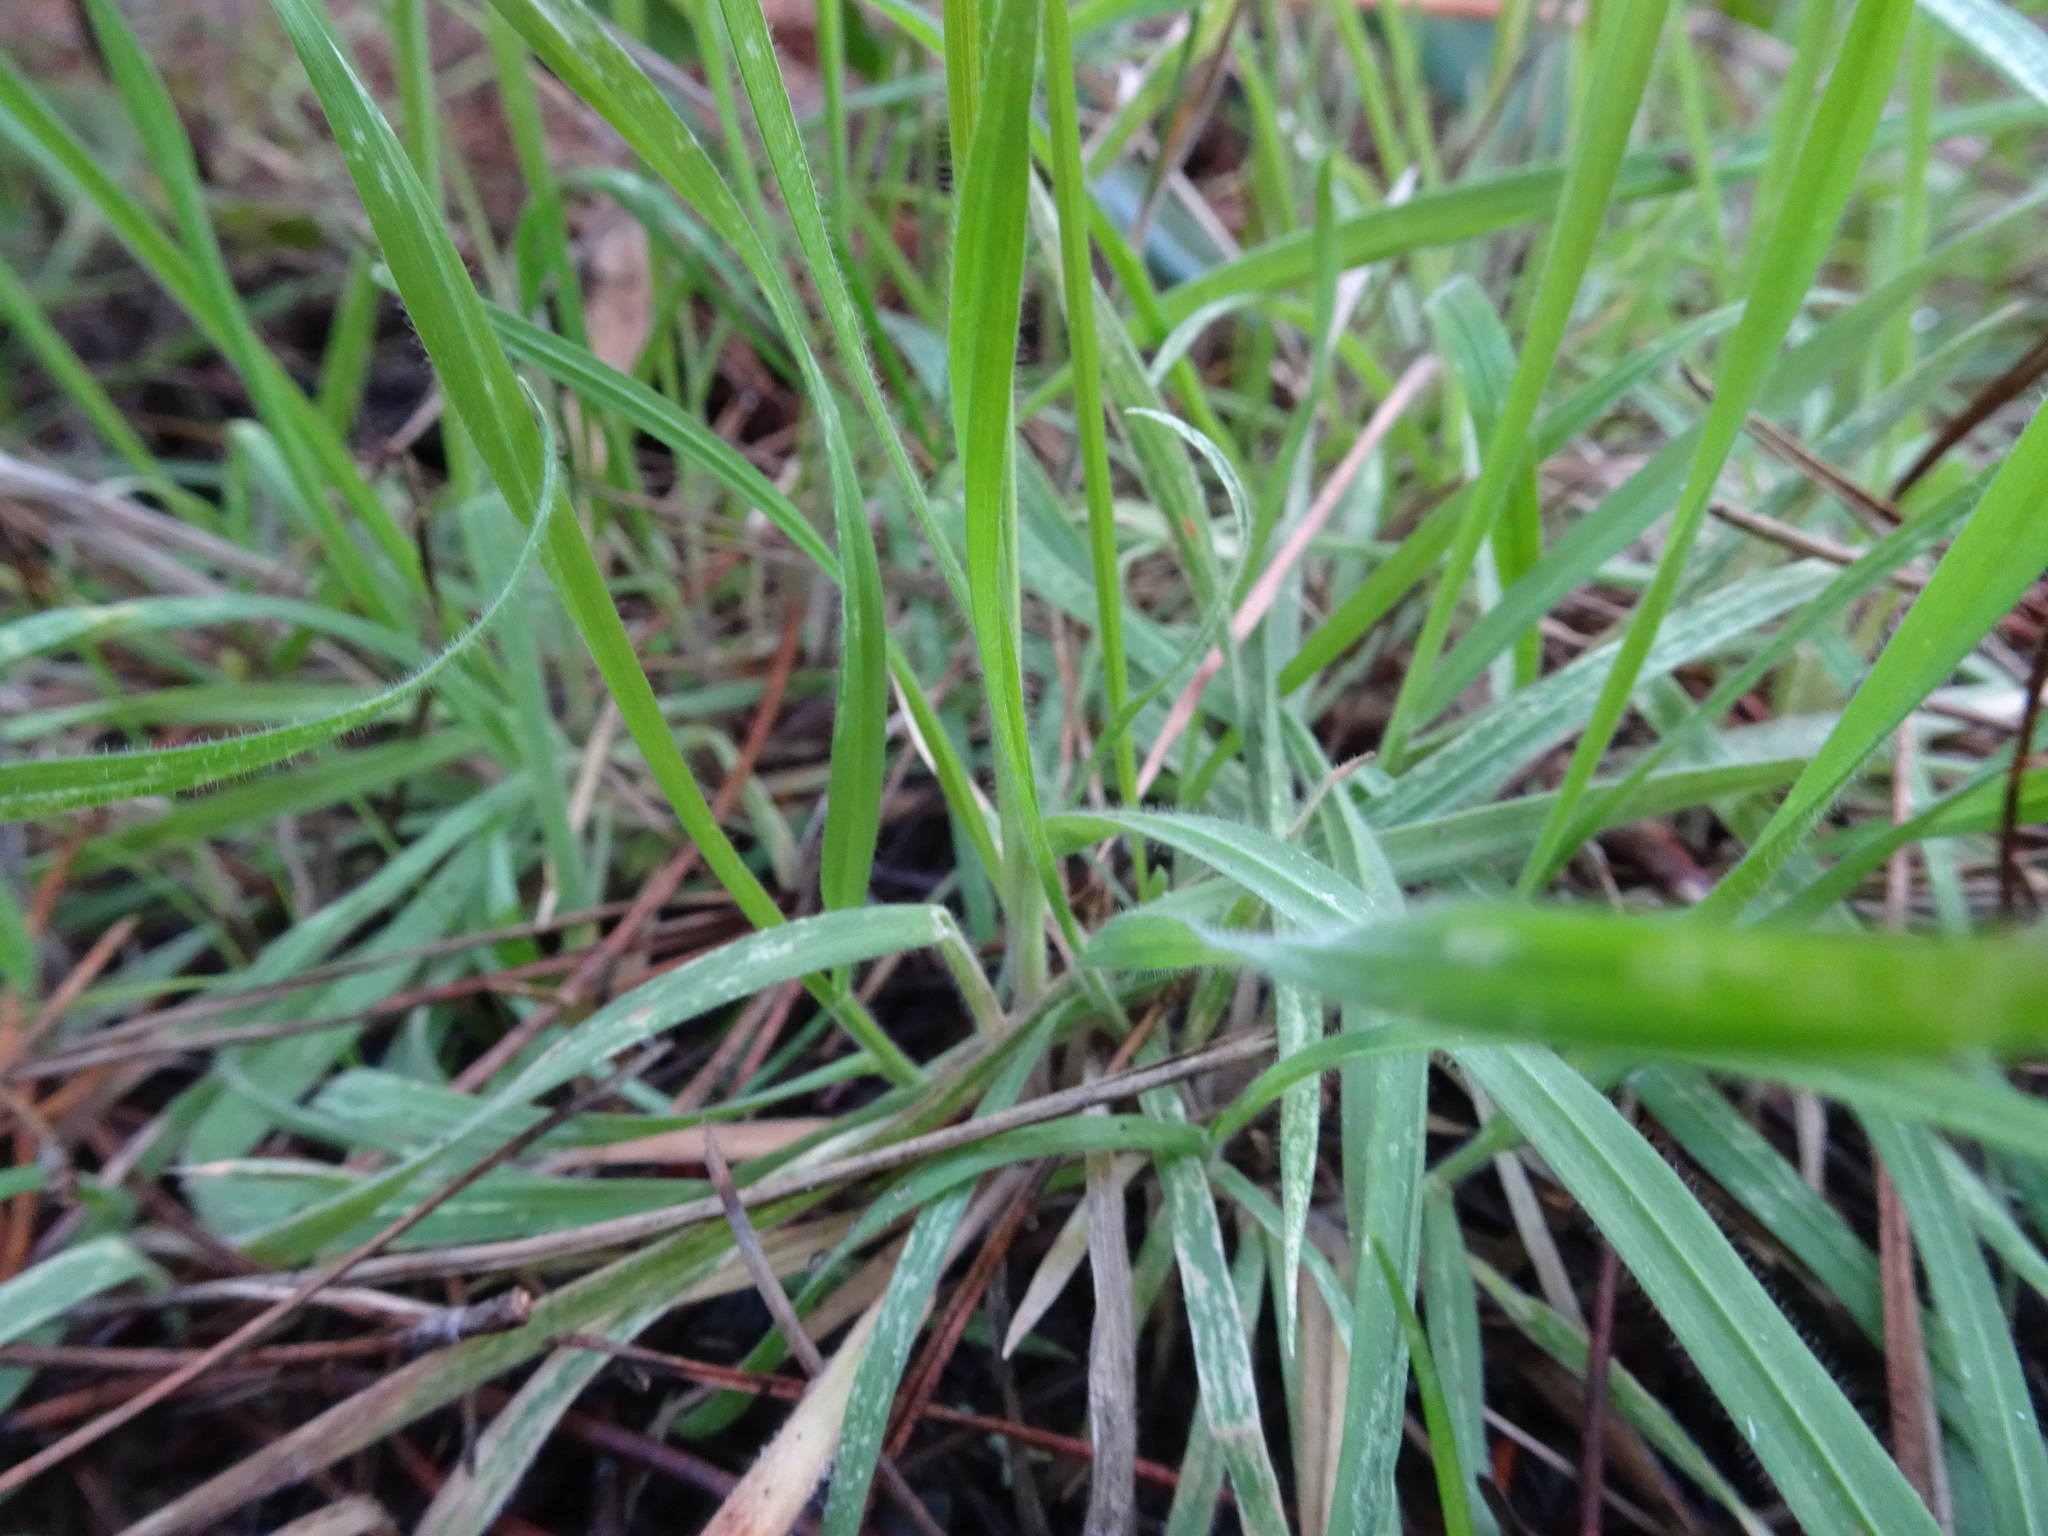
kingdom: Plantae
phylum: Tracheophyta
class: Liliopsida
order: Poales
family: Poaceae
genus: Holcus
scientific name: Holcus lanatus
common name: Yorkshire-fog
